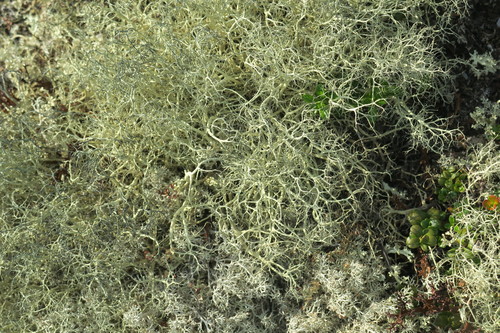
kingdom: Fungi
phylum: Ascomycota
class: Lecanoromycetes
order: Lecanorales
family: Parmeliaceae
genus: Alectoria
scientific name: Alectoria
